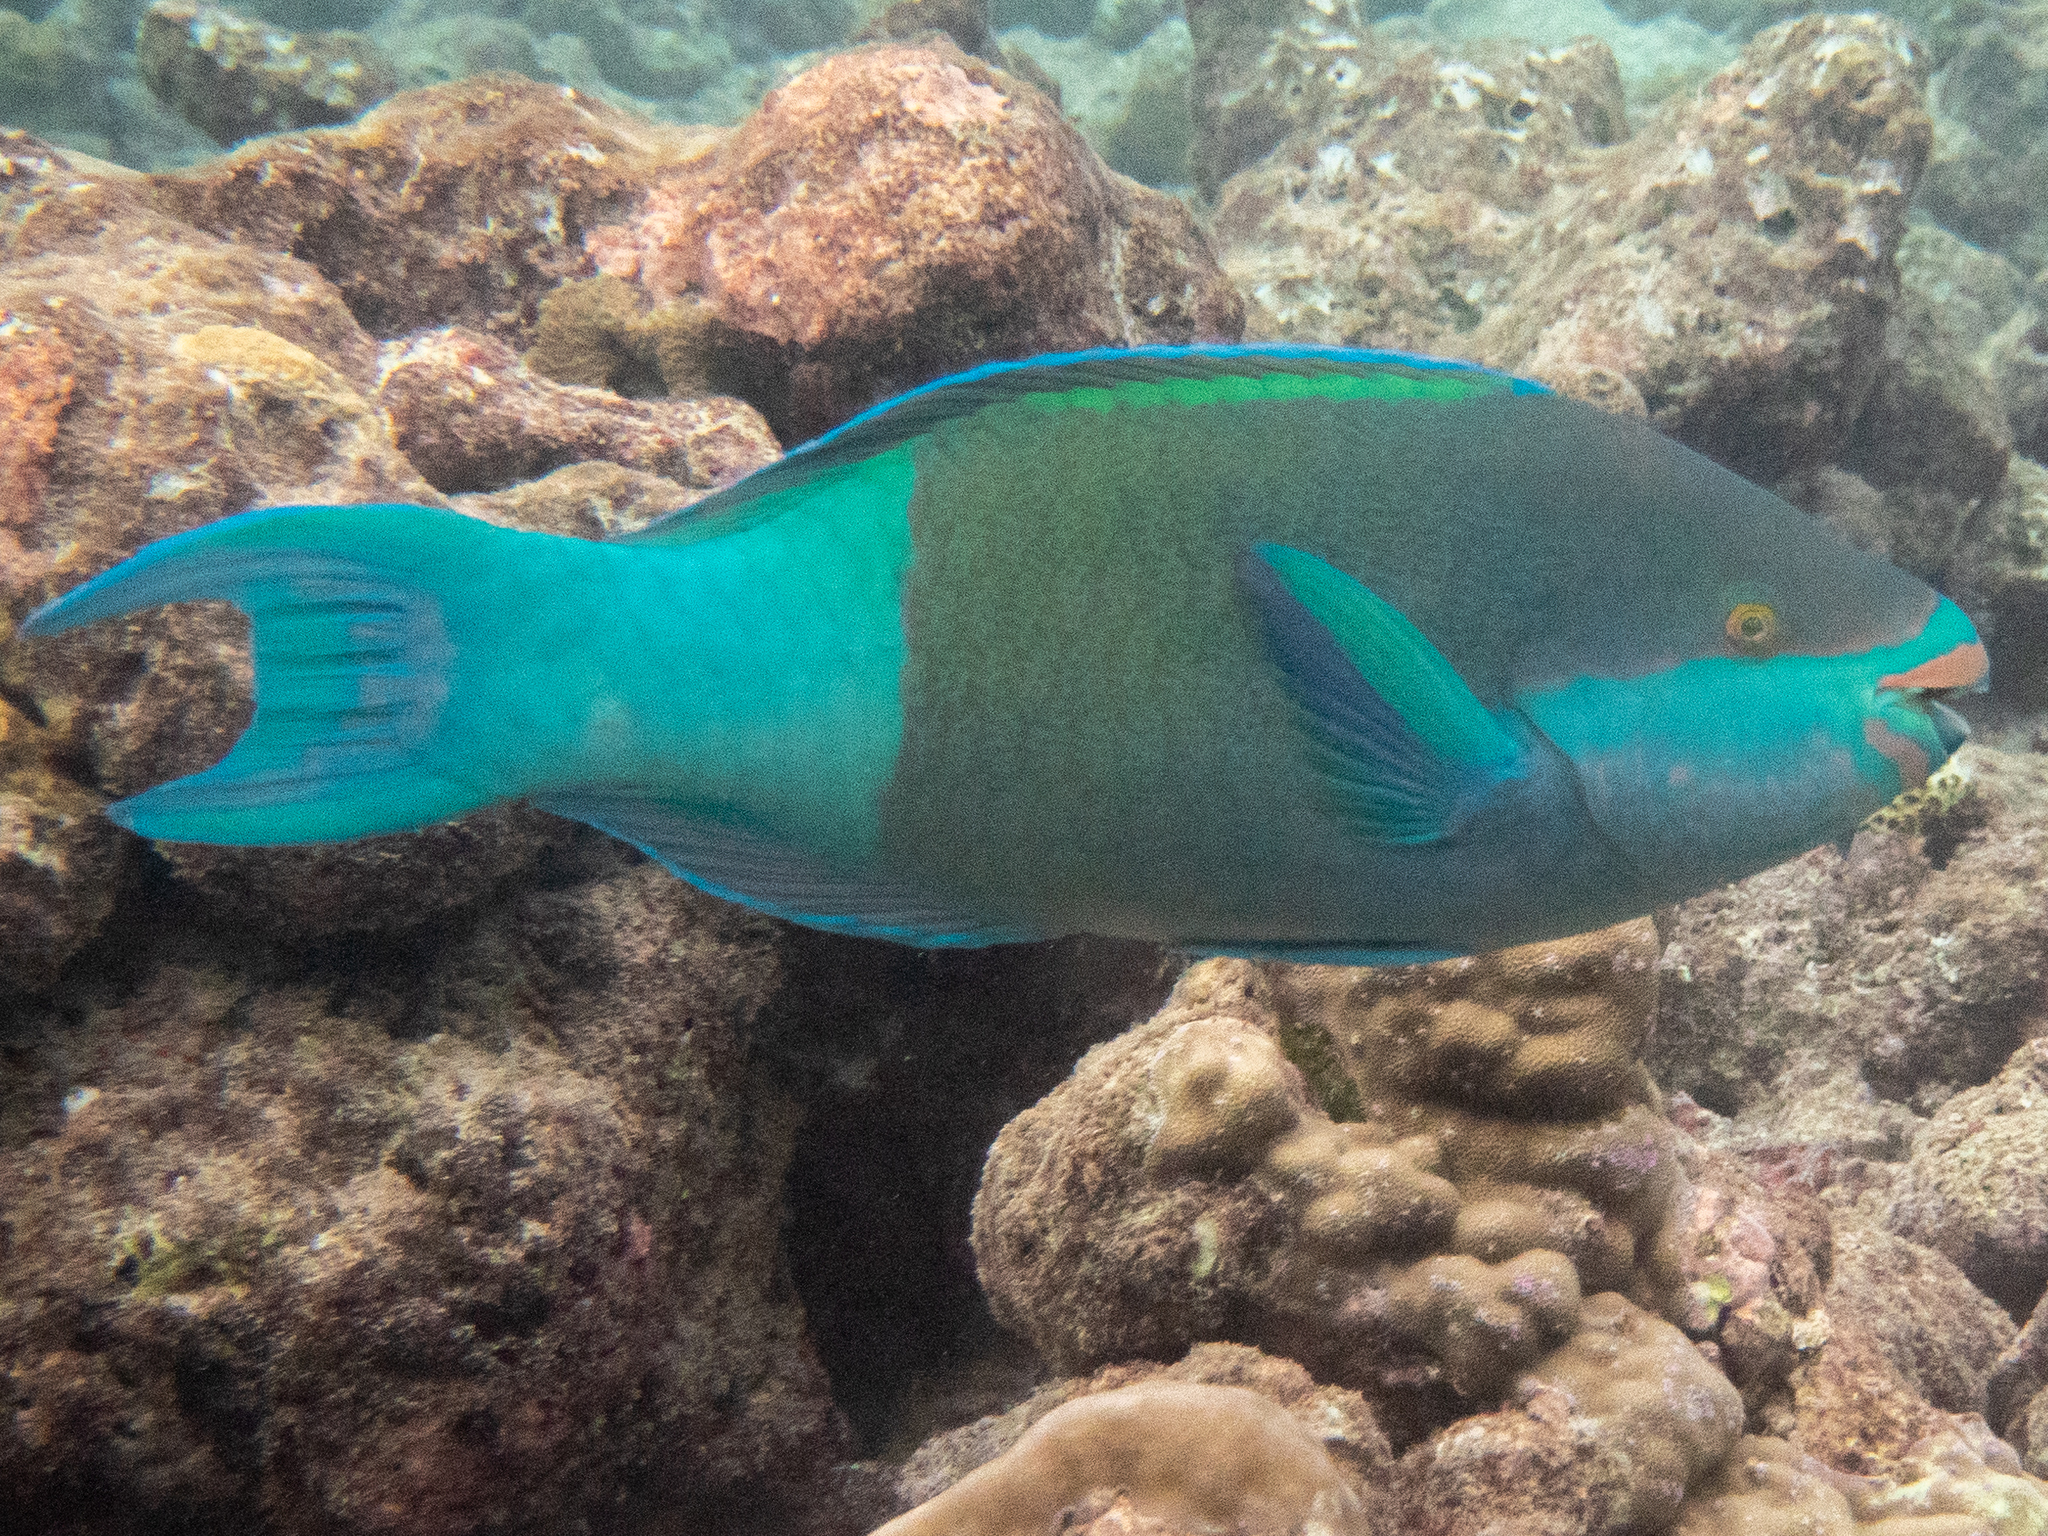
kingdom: Animalia
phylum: Chordata
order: Perciformes
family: Scaridae
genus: Scarus
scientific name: Scarus frenatus
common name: Bridled parrotfish
